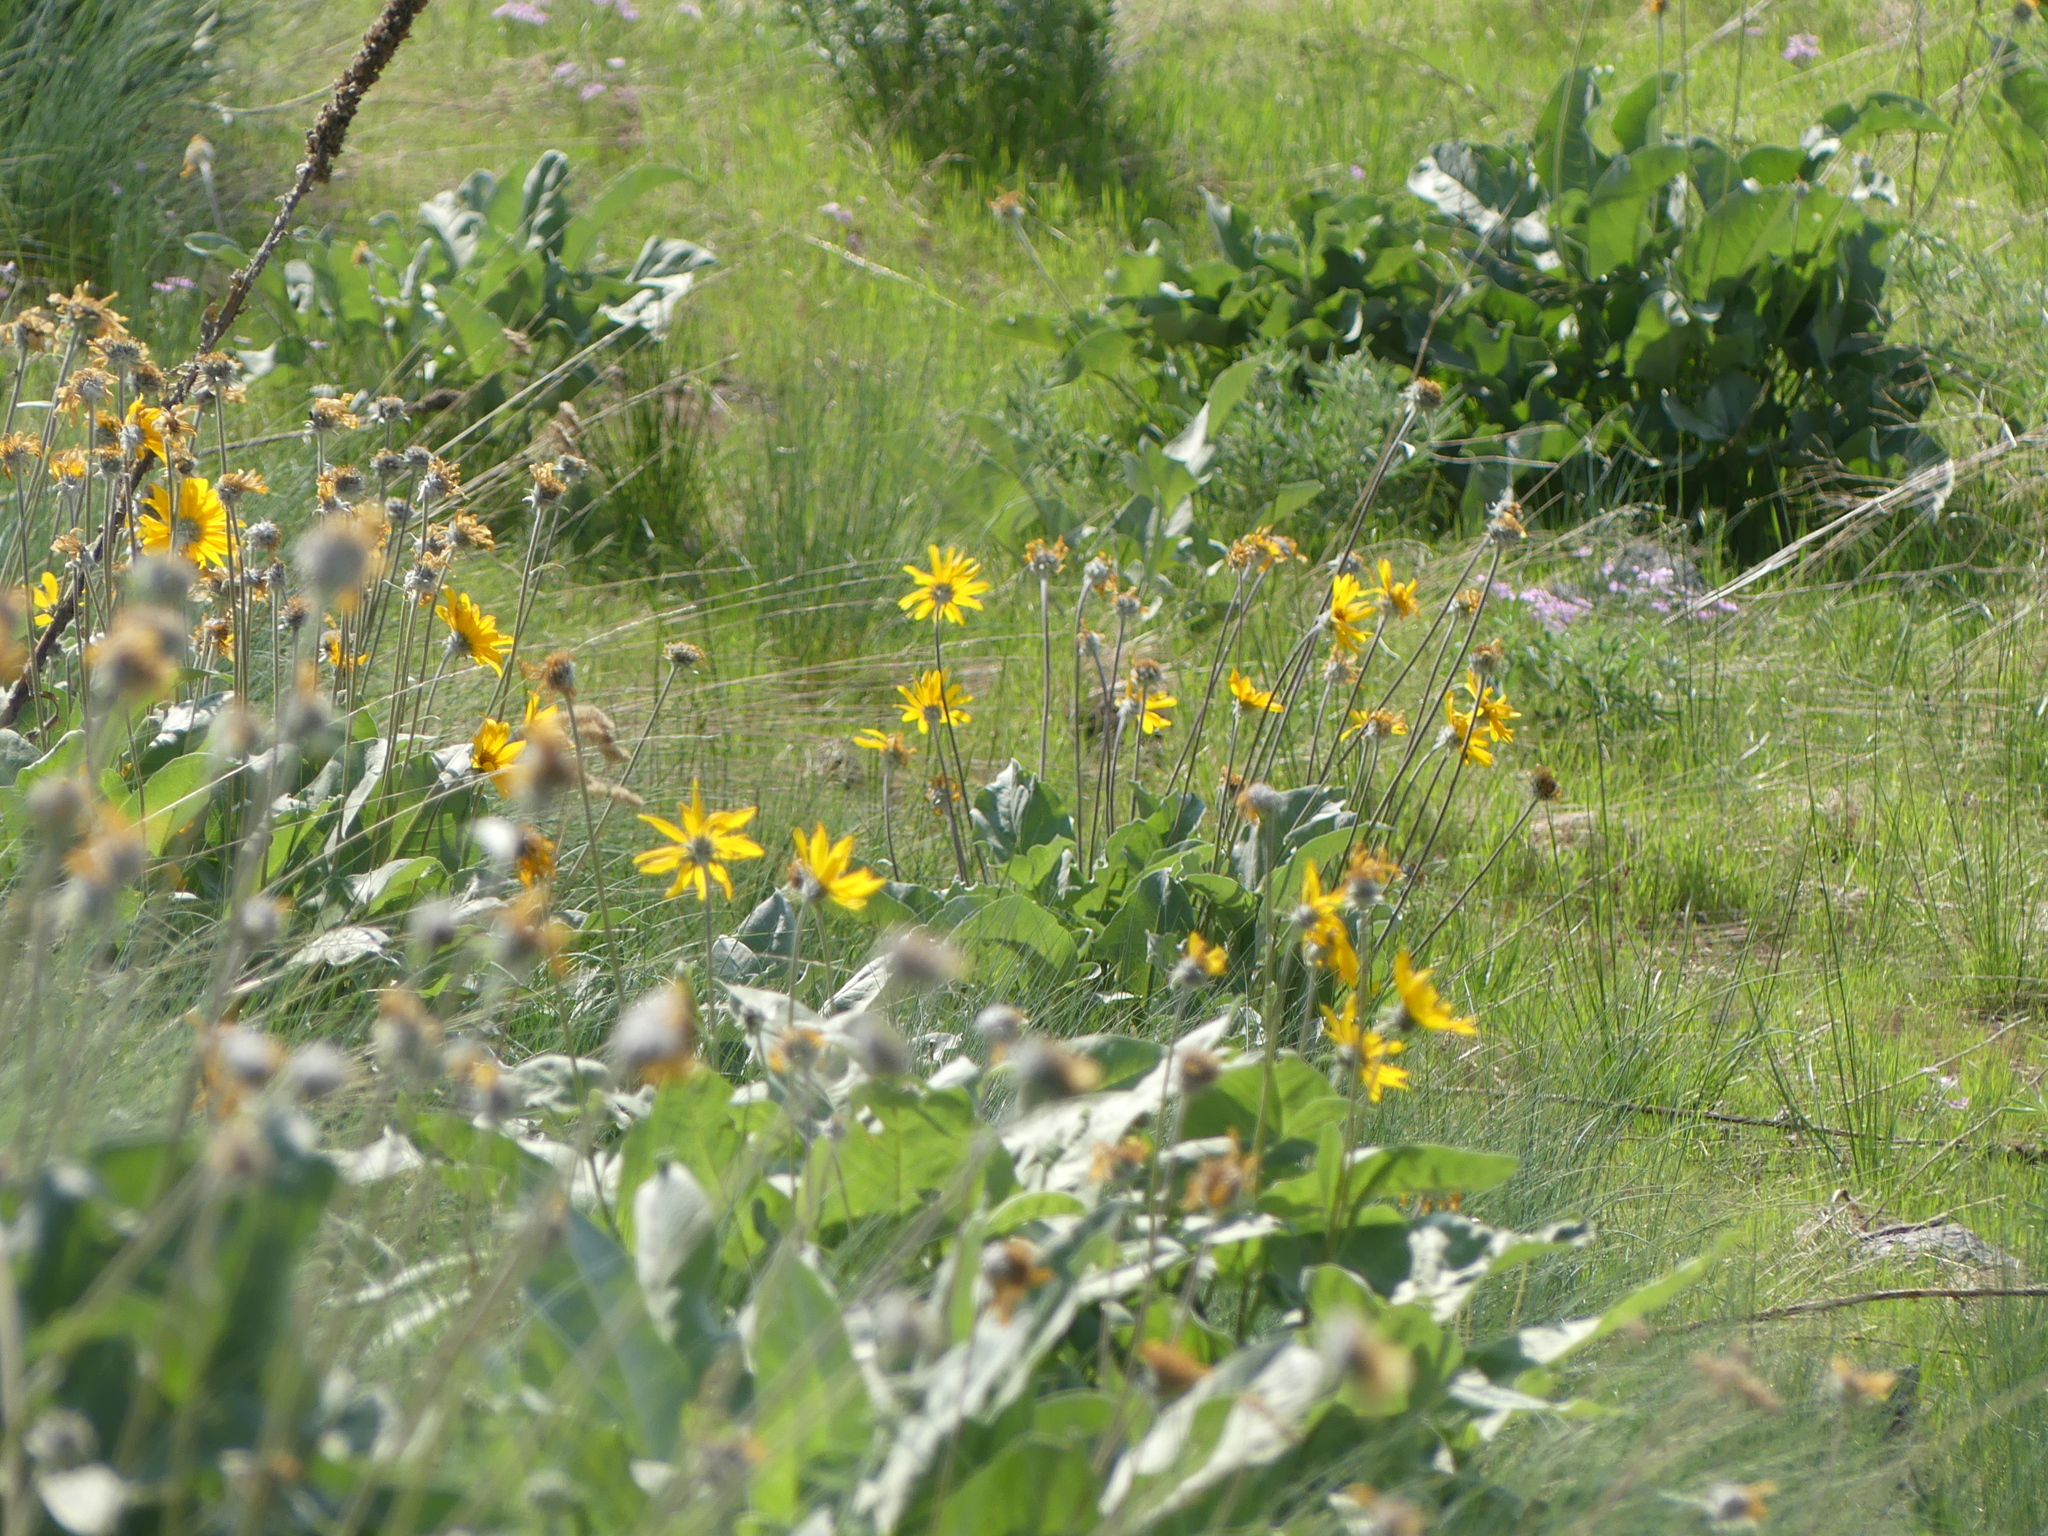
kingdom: Plantae
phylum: Tracheophyta
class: Magnoliopsida
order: Asterales
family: Asteraceae
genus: Wyethia
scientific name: Wyethia sagittata
